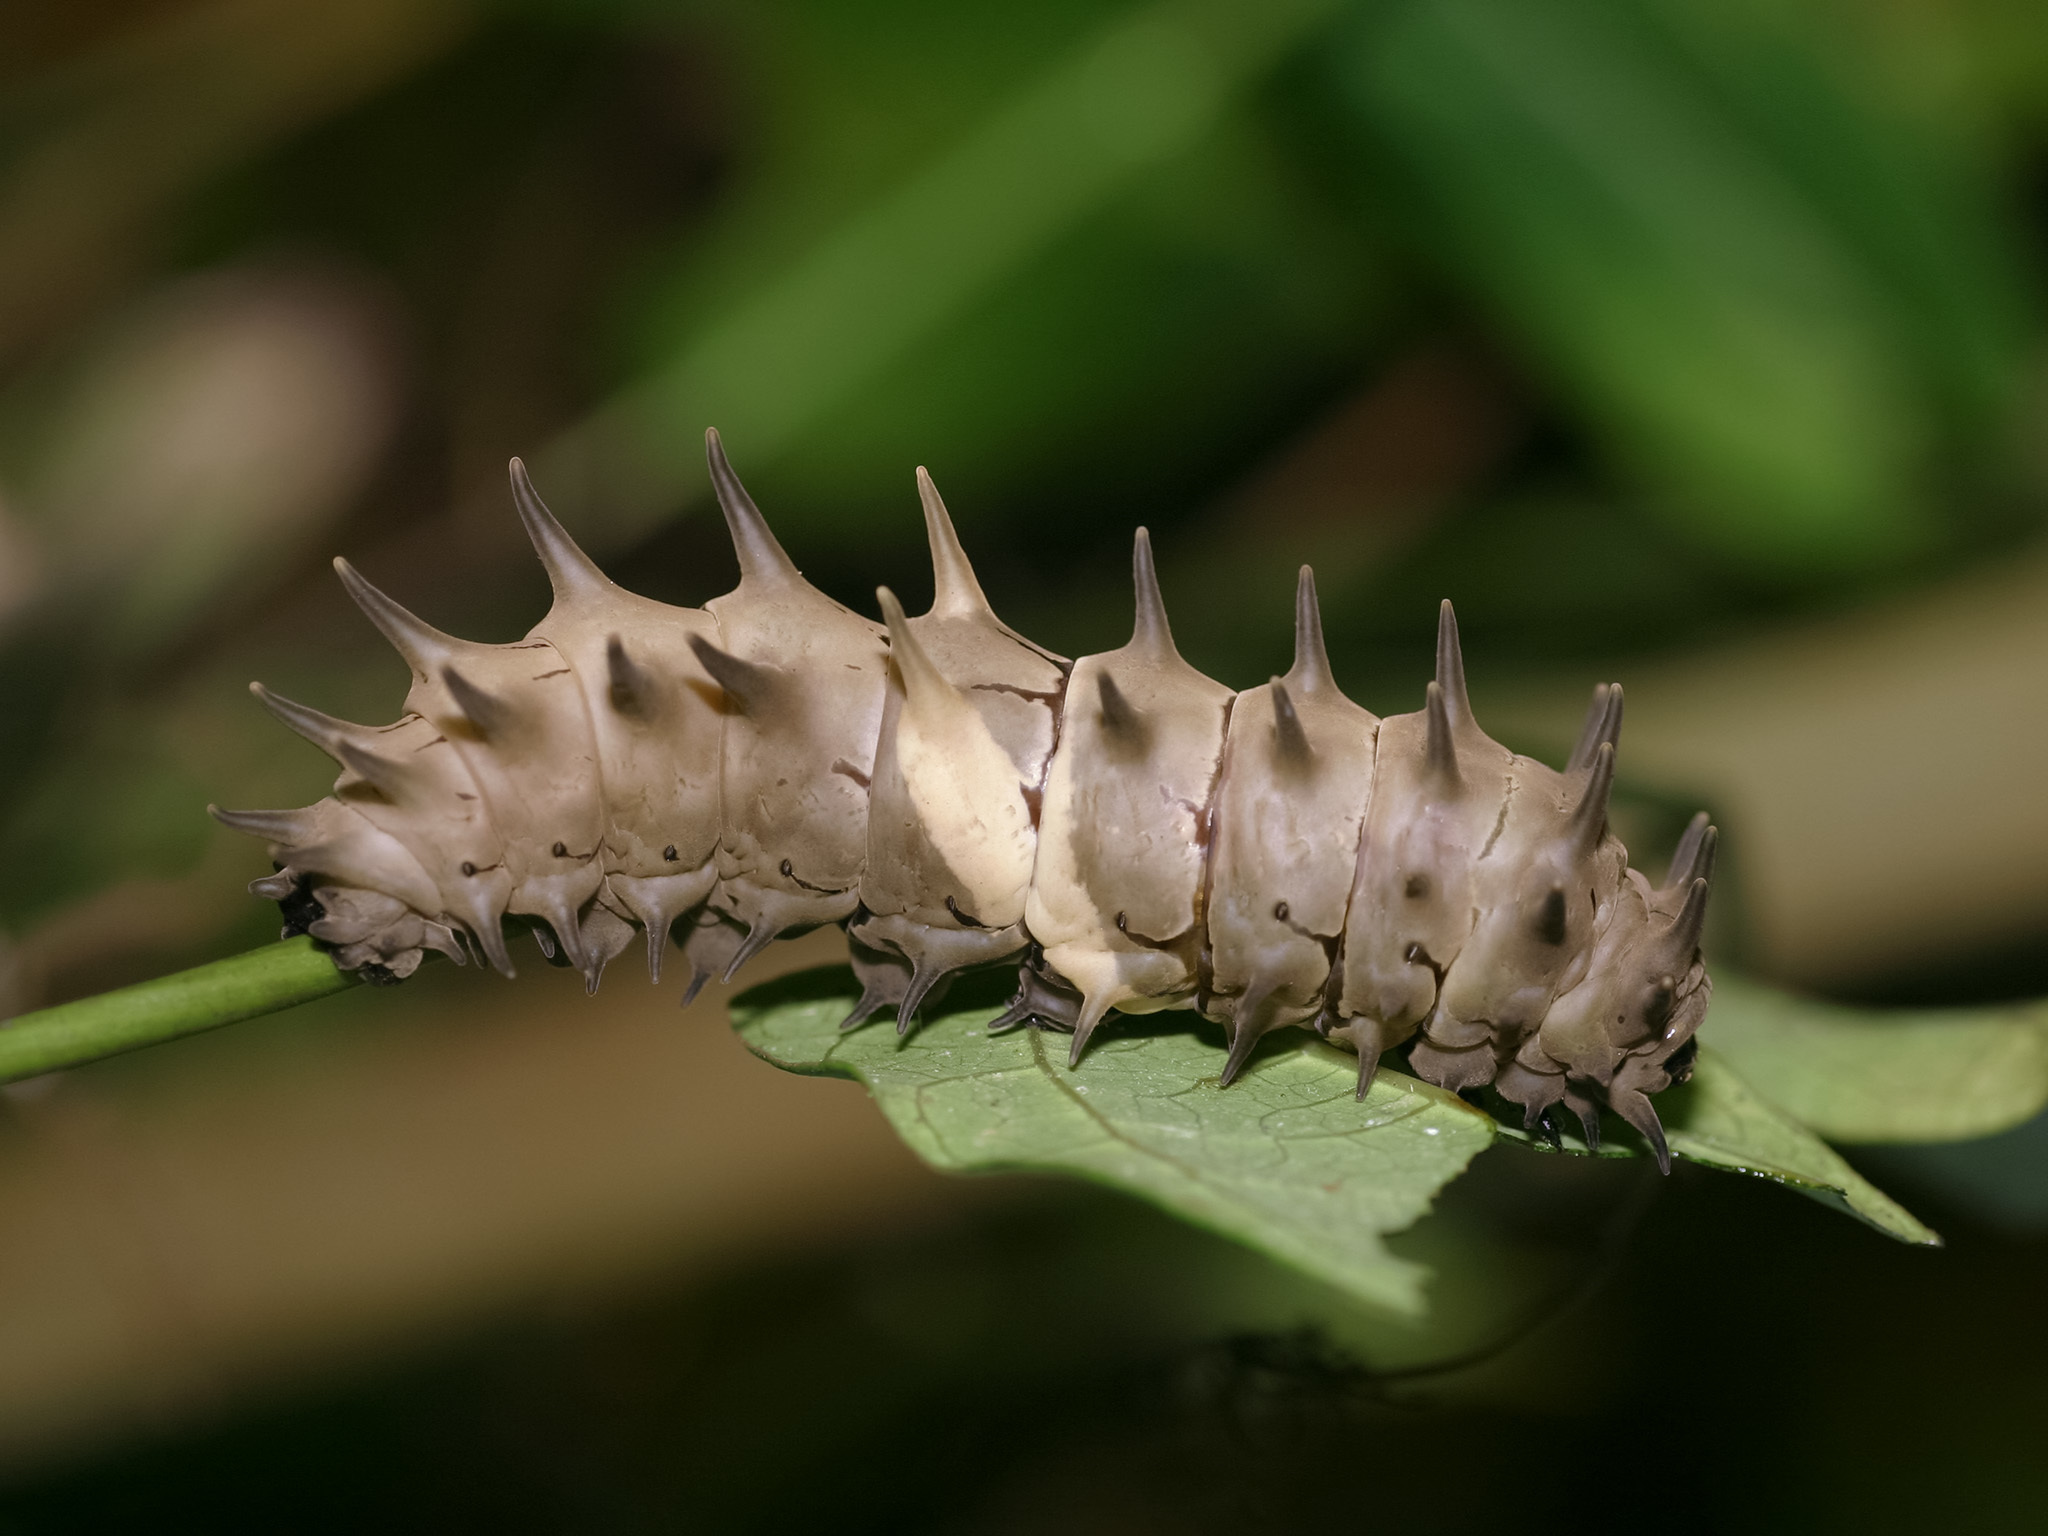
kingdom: Animalia
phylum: Arthropoda
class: Insecta
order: Lepidoptera
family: Papilionidae
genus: Troides
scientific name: Troides helena
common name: Common birdwing
